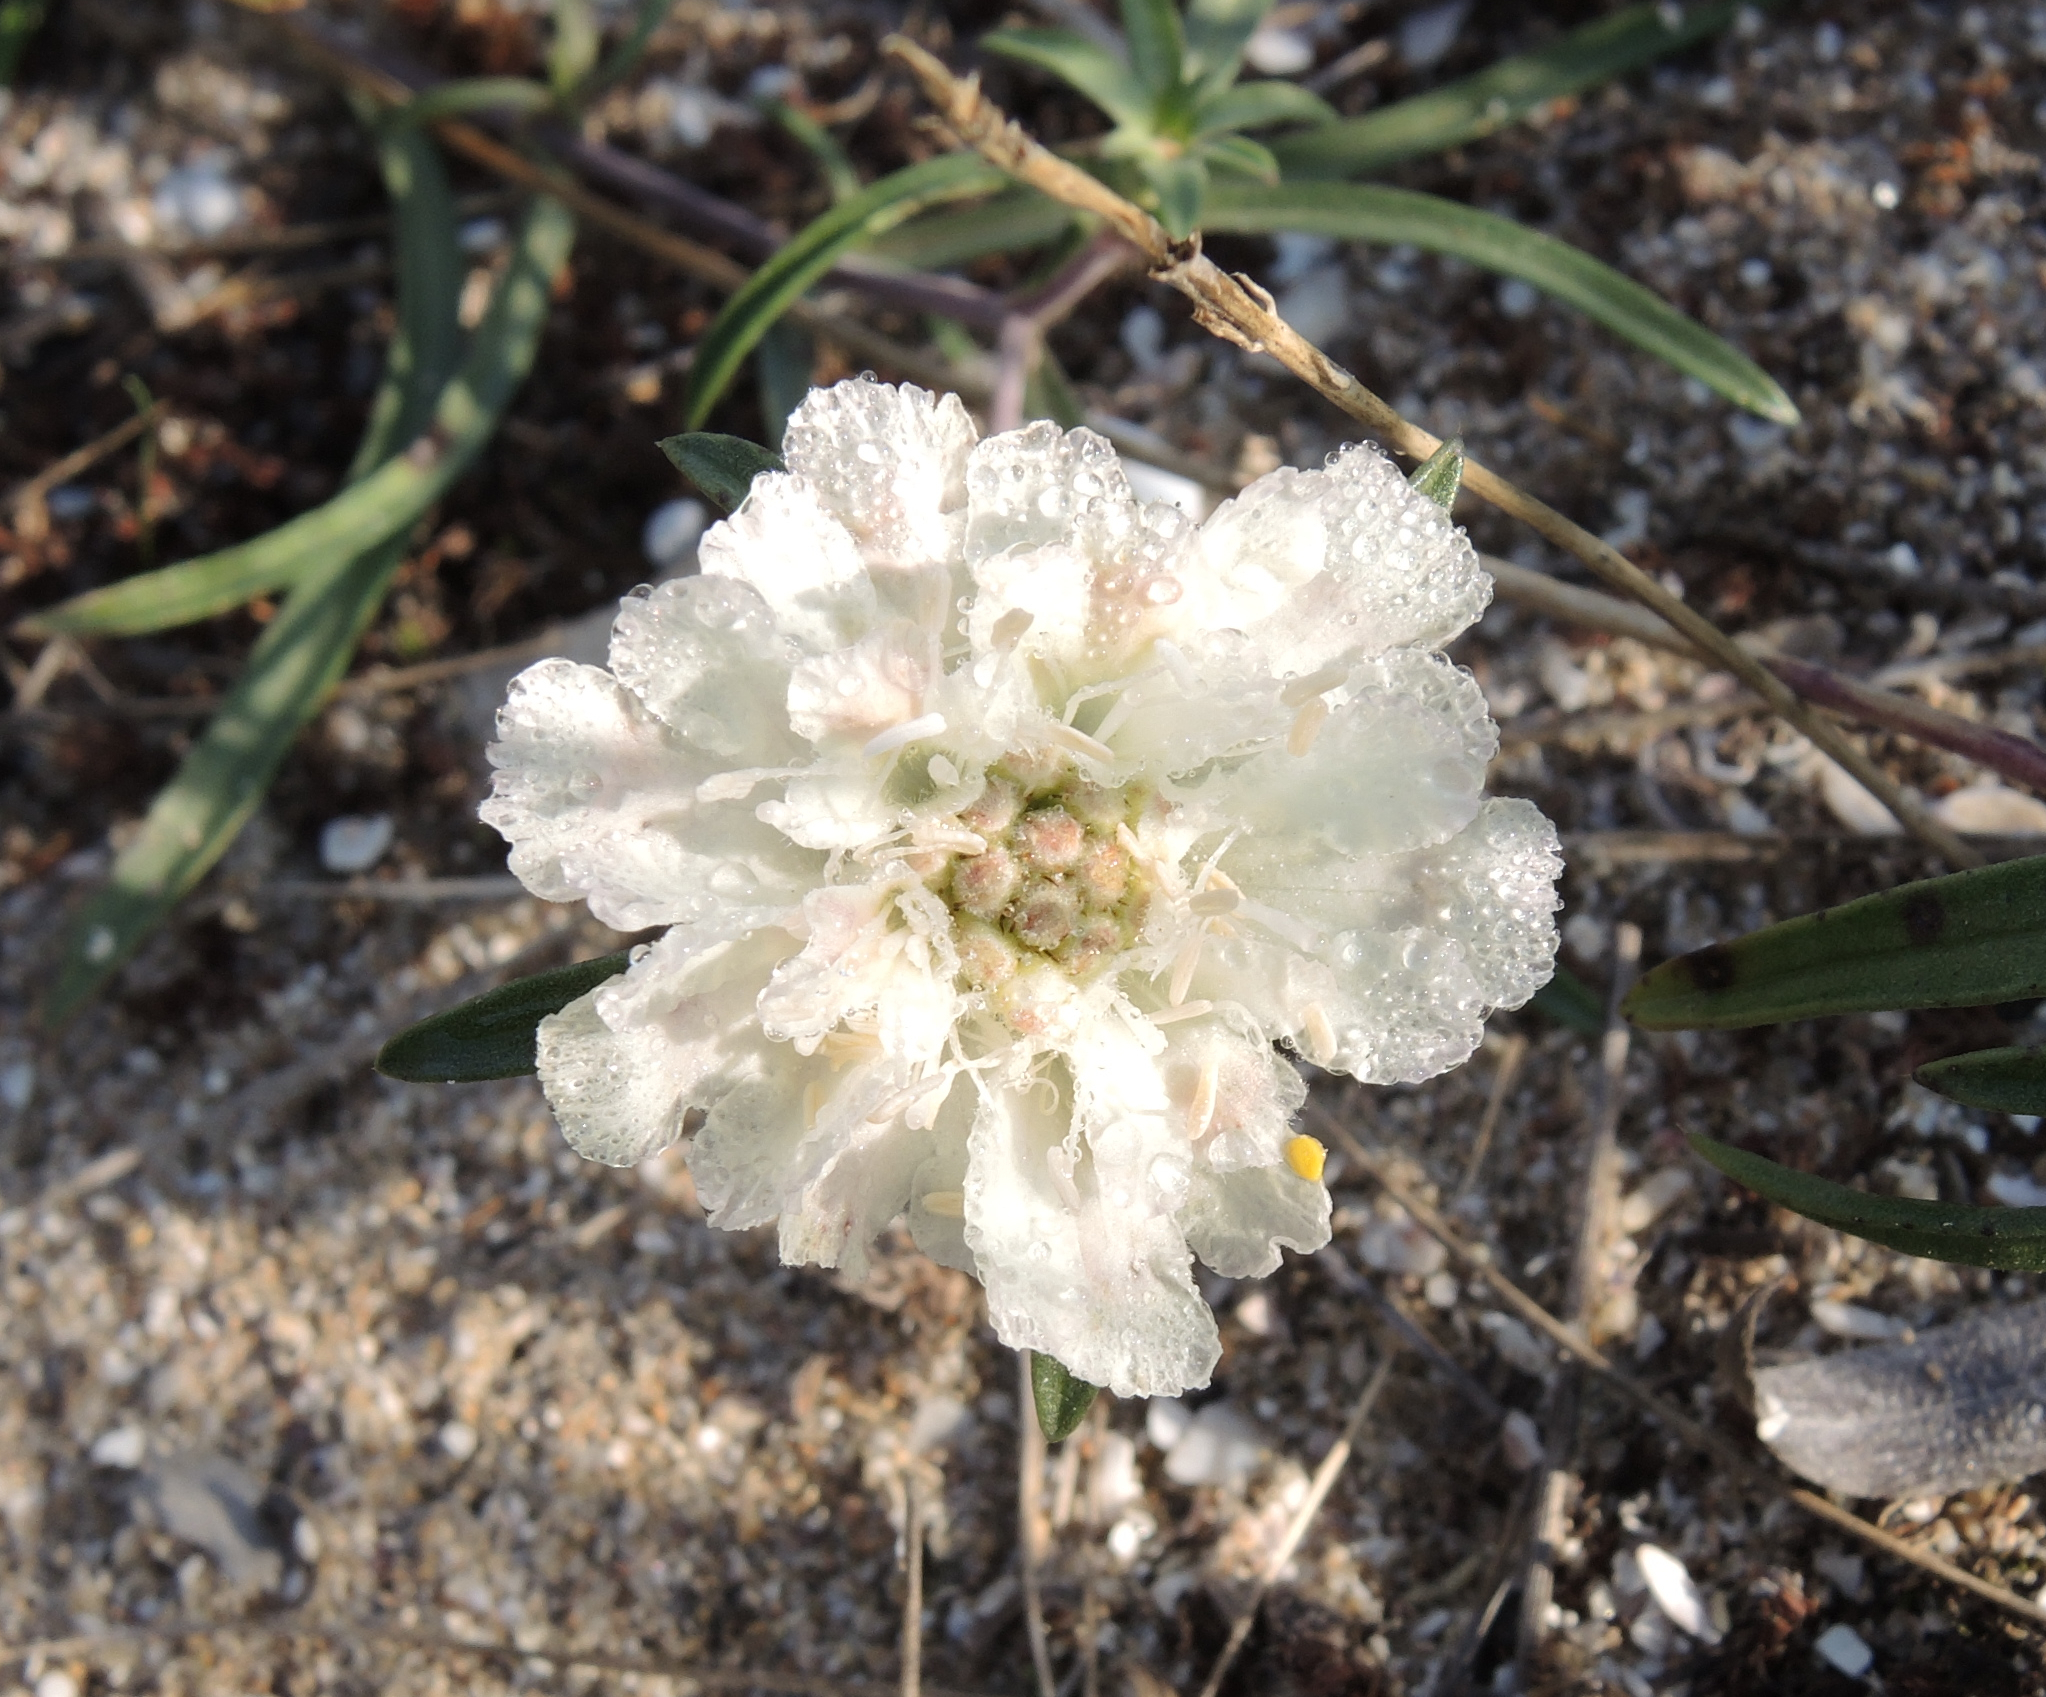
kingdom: Plantae
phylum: Tracheophyta
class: Magnoliopsida
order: Dipsacales
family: Caprifoliaceae
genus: Lomelosia
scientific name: Lomelosia argentea
